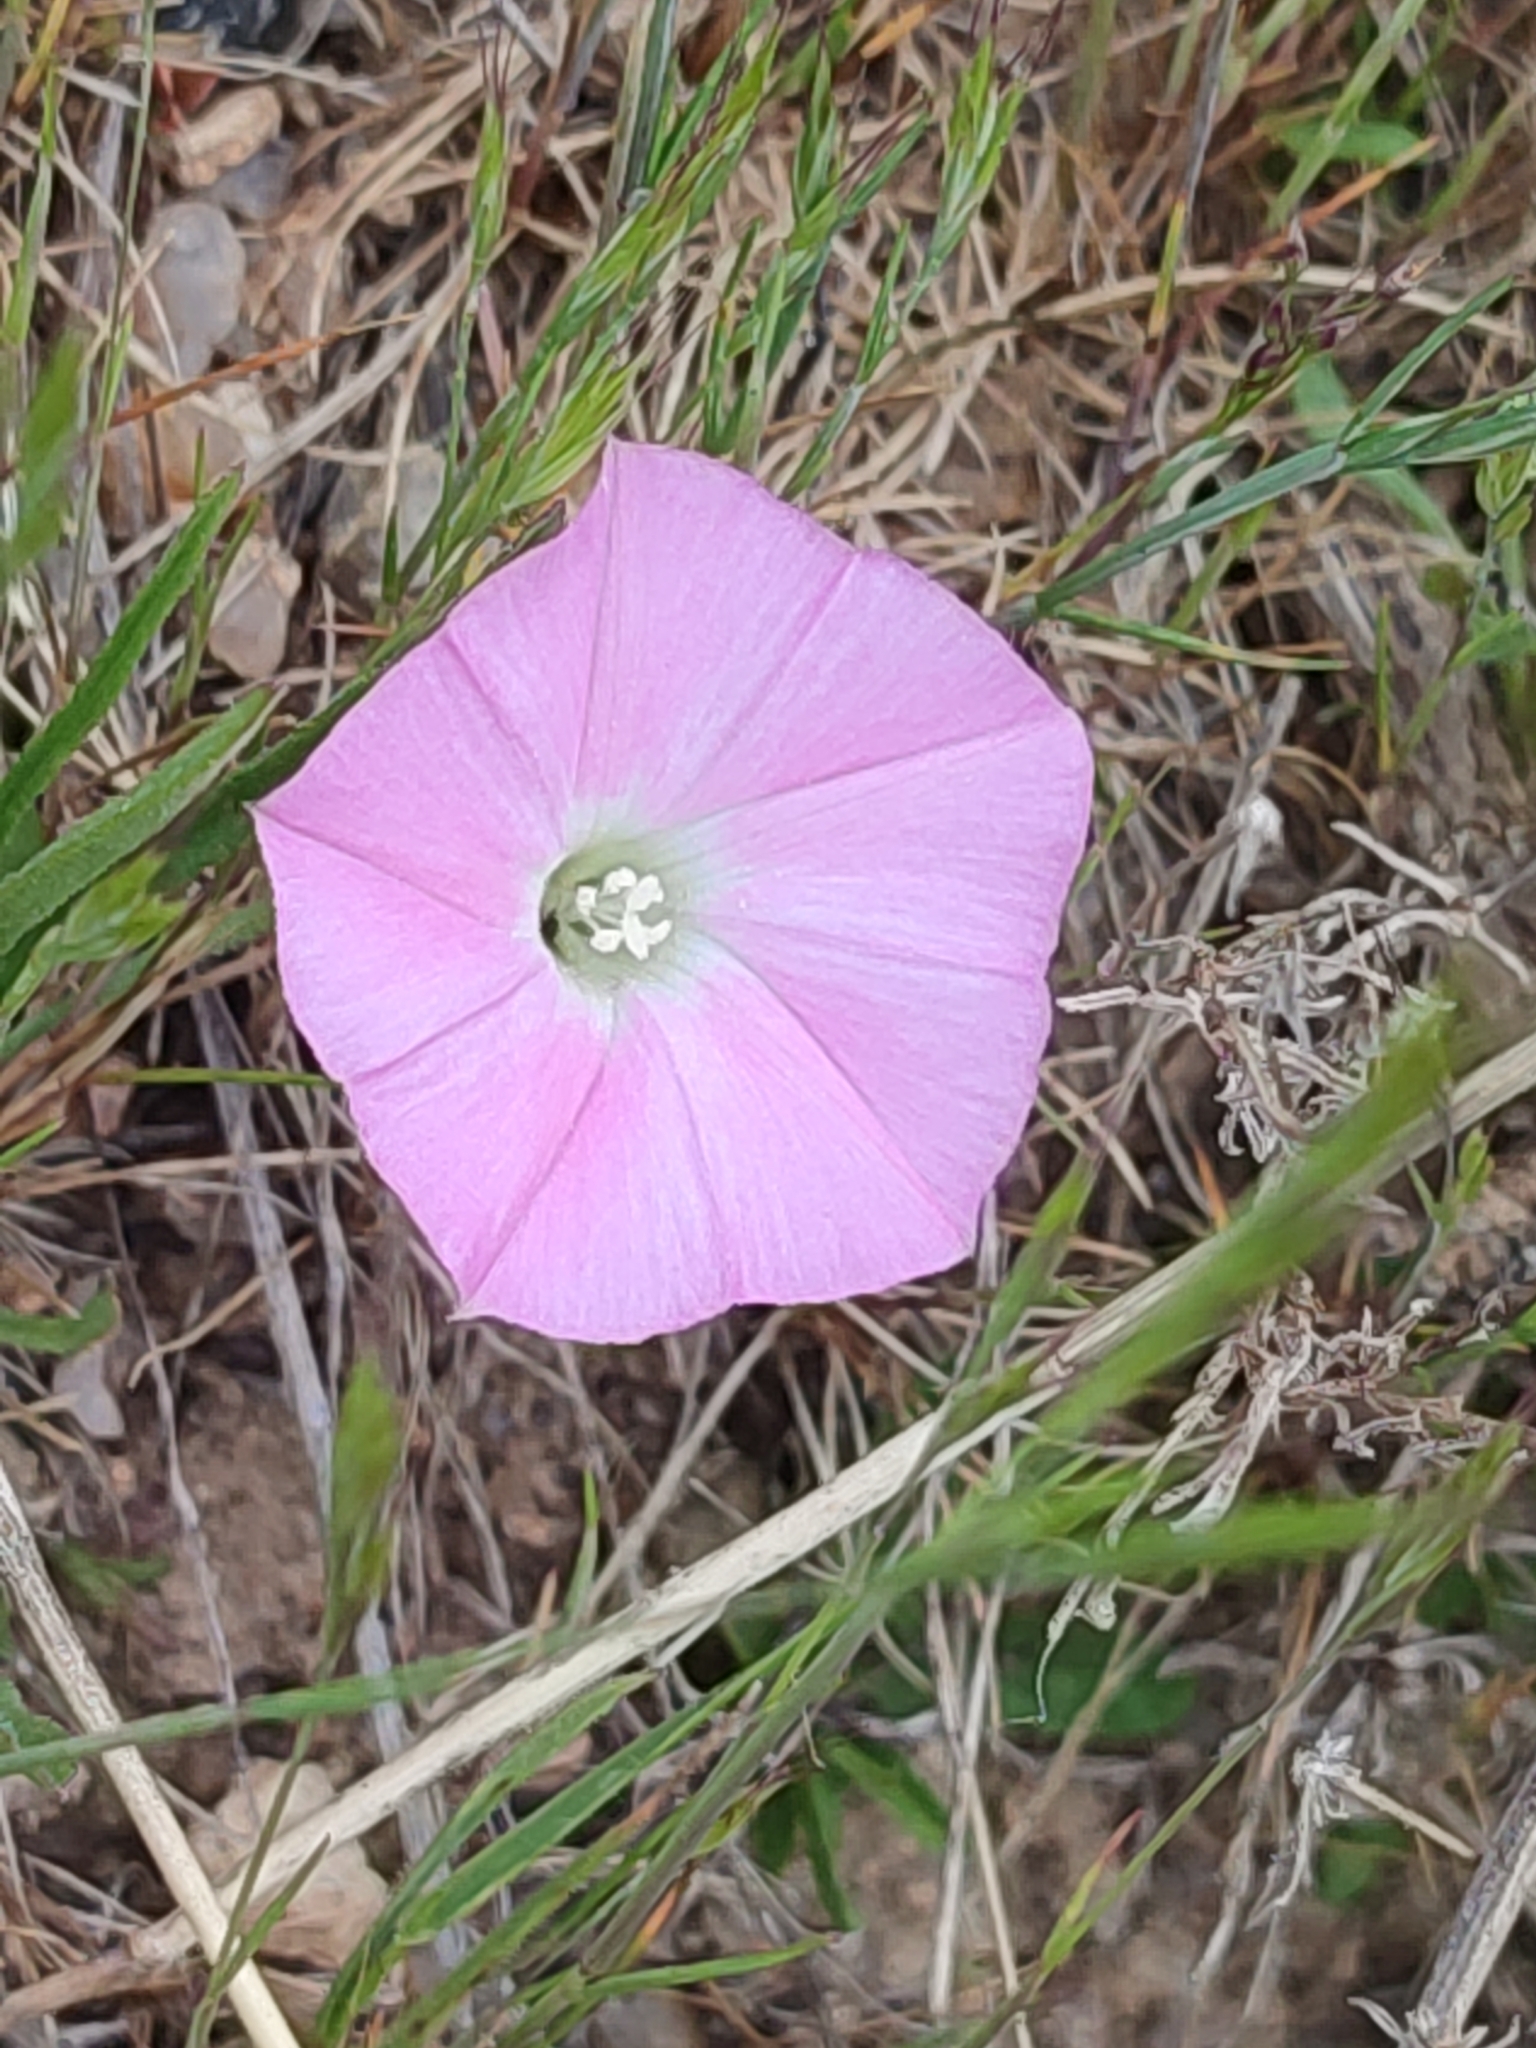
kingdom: Plantae
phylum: Tracheophyta
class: Magnoliopsida
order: Solanales
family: Convolvulaceae
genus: Convolvulus
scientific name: Convolvulus angustissimus
